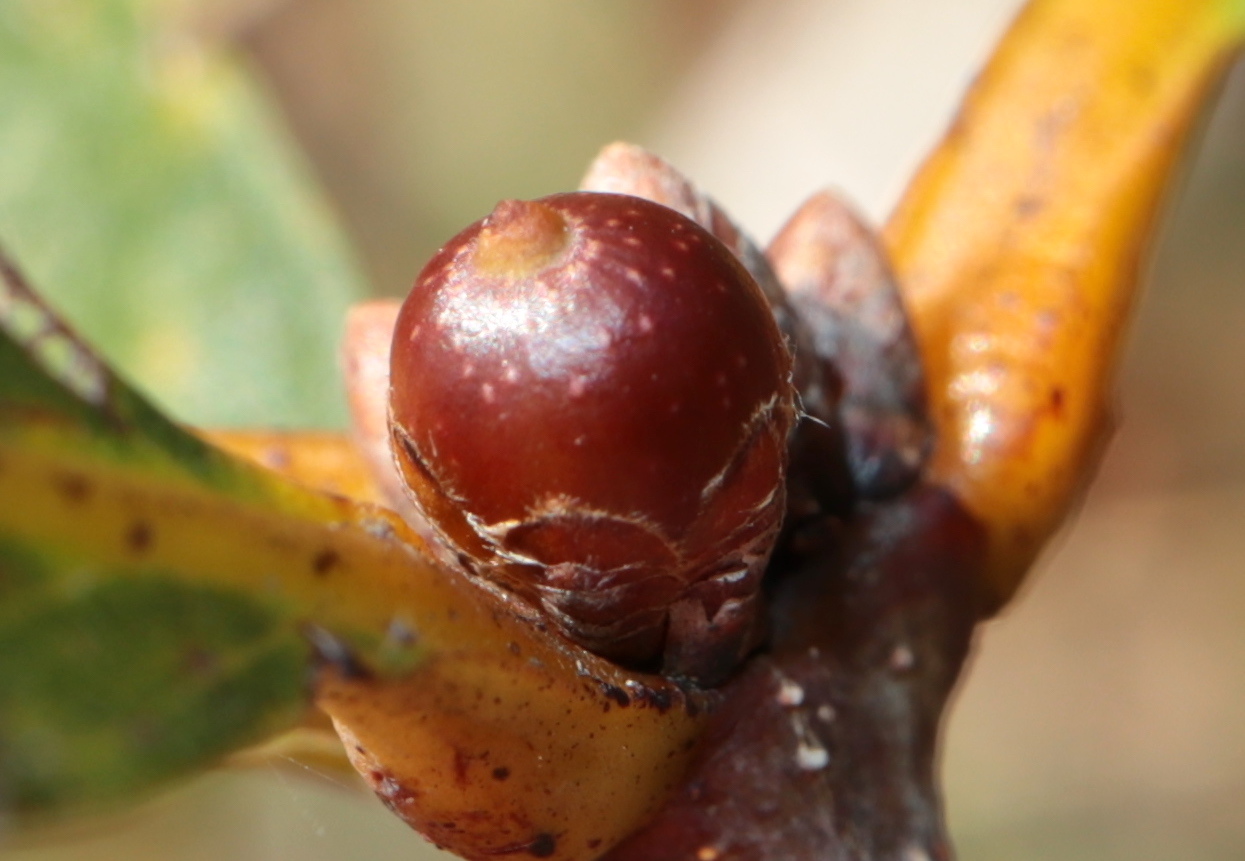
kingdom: Animalia
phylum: Arthropoda
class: Insecta
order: Hymenoptera
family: Cynipidae
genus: Andricus
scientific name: Andricus
